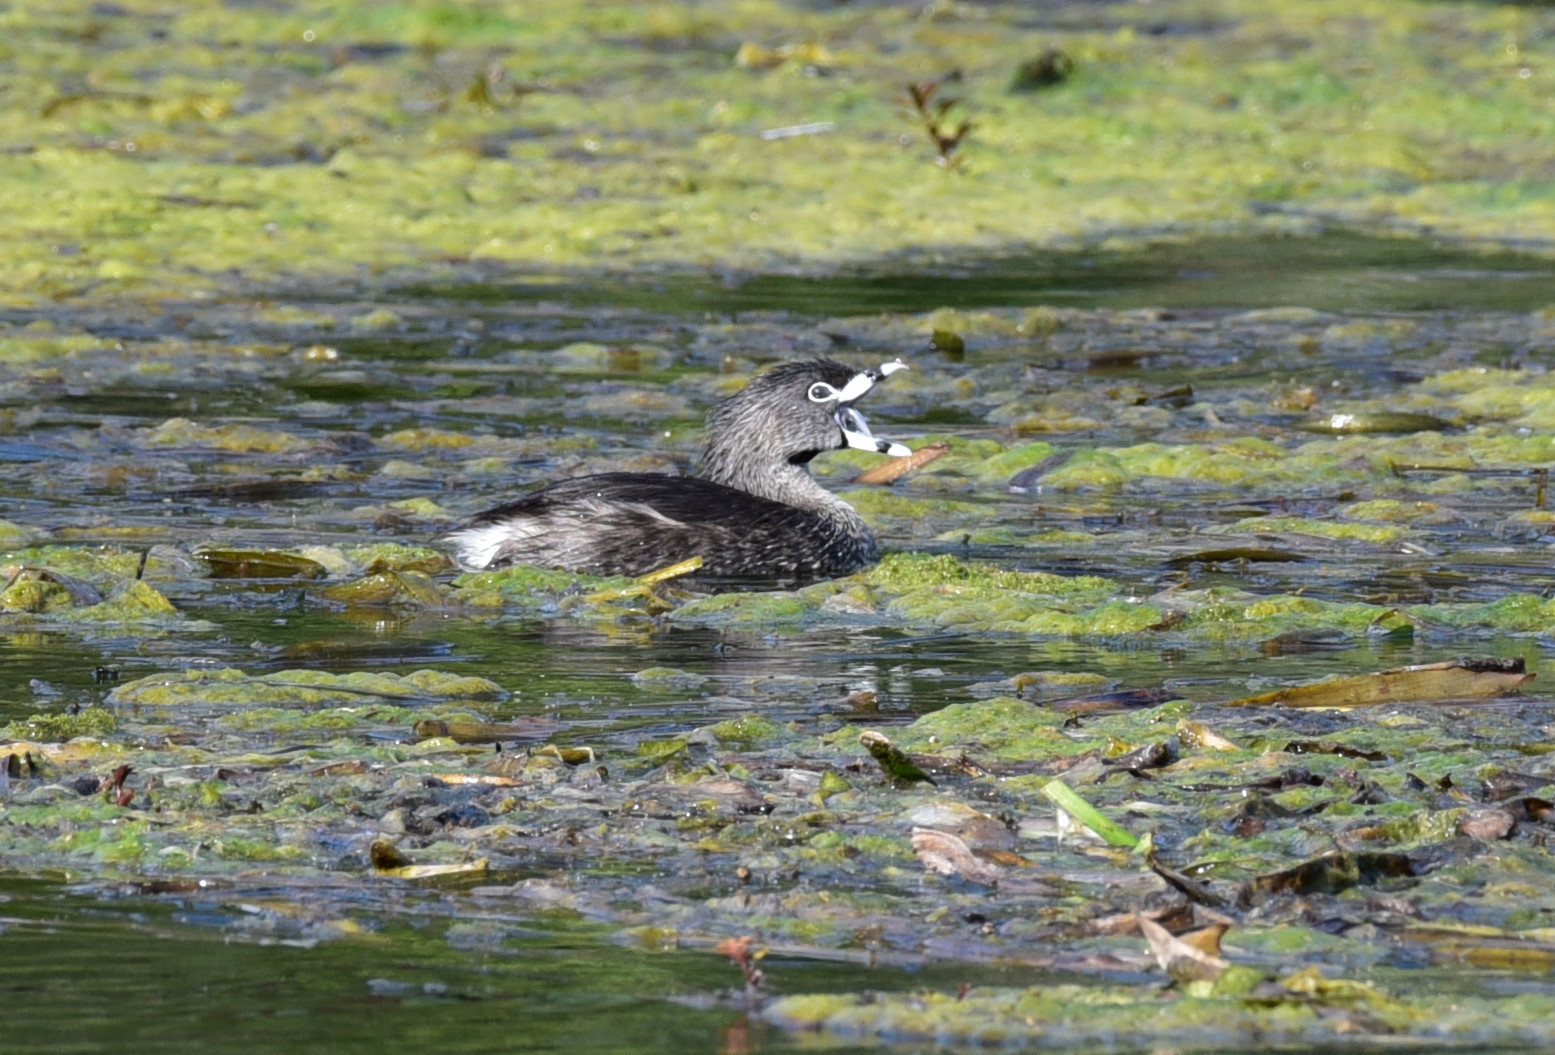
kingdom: Animalia
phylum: Chordata
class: Aves
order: Podicipediformes
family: Podicipedidae
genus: Podilymbus
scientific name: Podilymbus podiceps
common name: Pied-billed grebe
